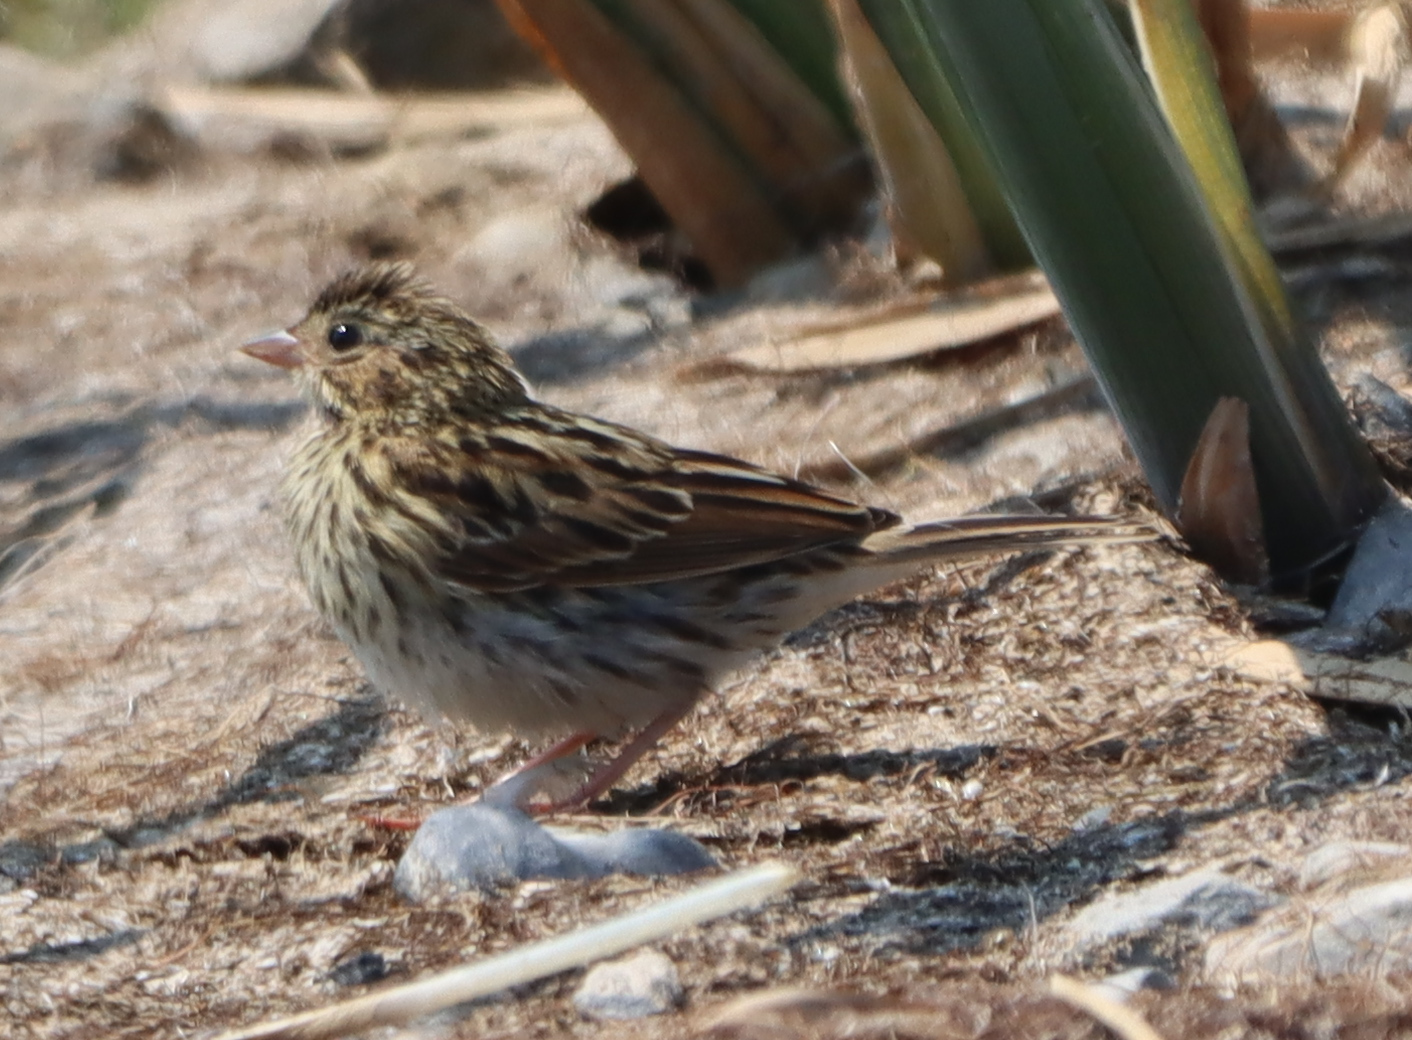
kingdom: Animalia
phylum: Chordata
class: Aves
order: Passeriformes
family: Passerellidae
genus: Passerculus
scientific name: Passerculus sandwichensis
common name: Savannah sparrow
